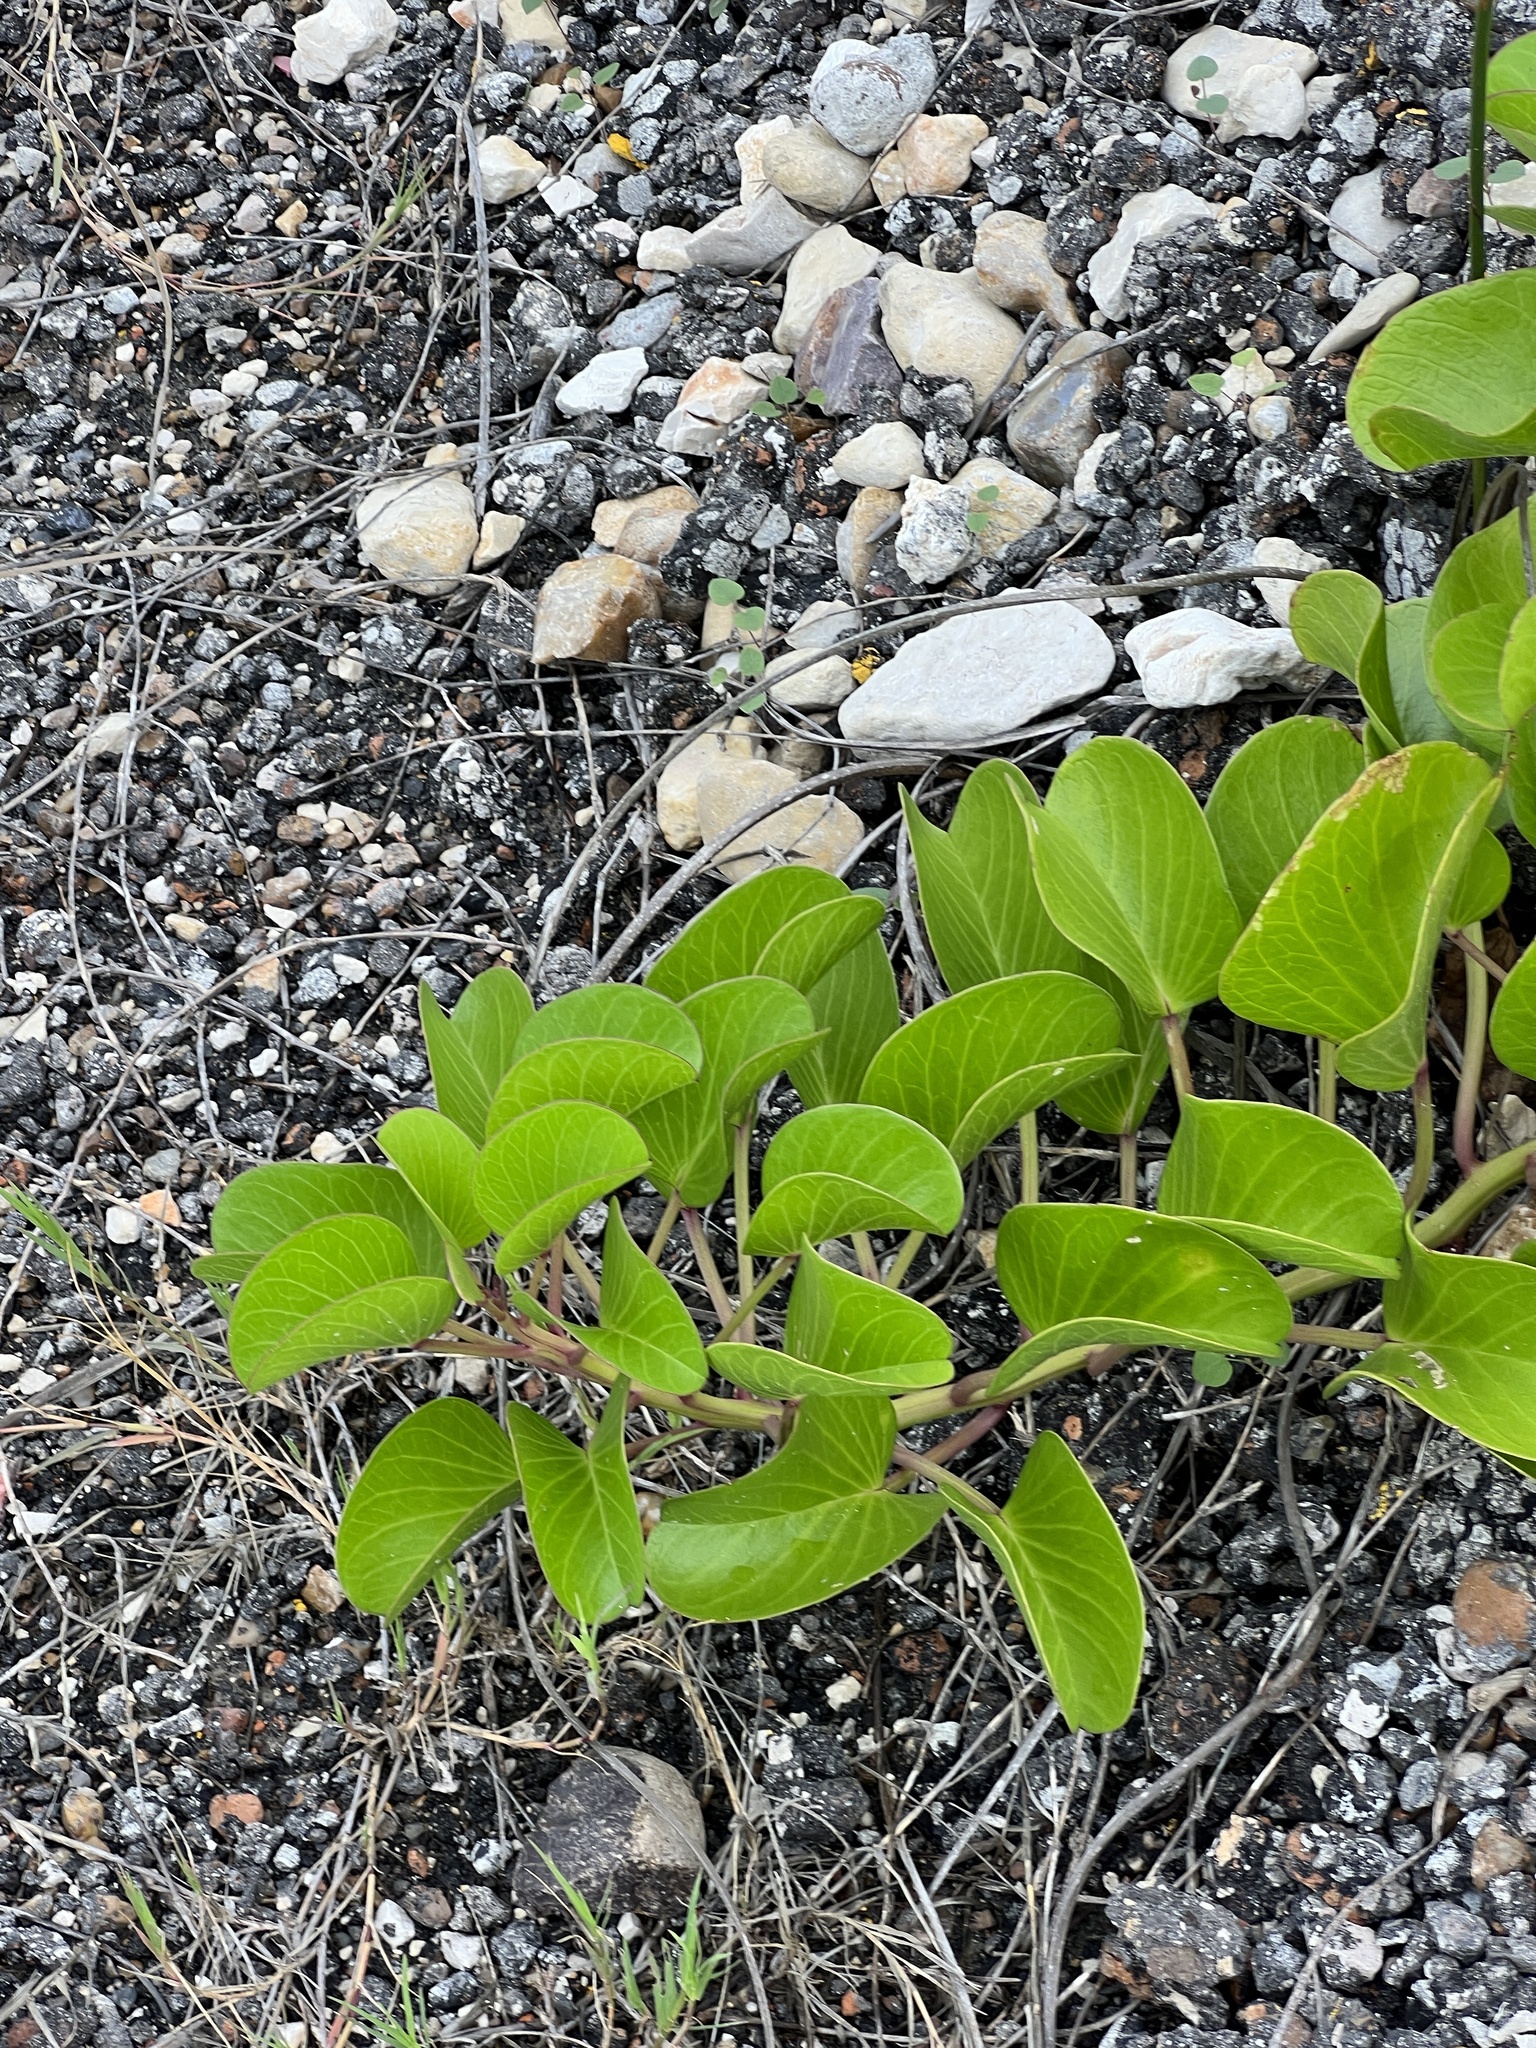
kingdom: Plantae
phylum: Tracheophyta
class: Magnoliopsida
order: Solanales
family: Convolvulaceae
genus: Ipomoea
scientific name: Ipomoea pes-caprae
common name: Beach morning glory
